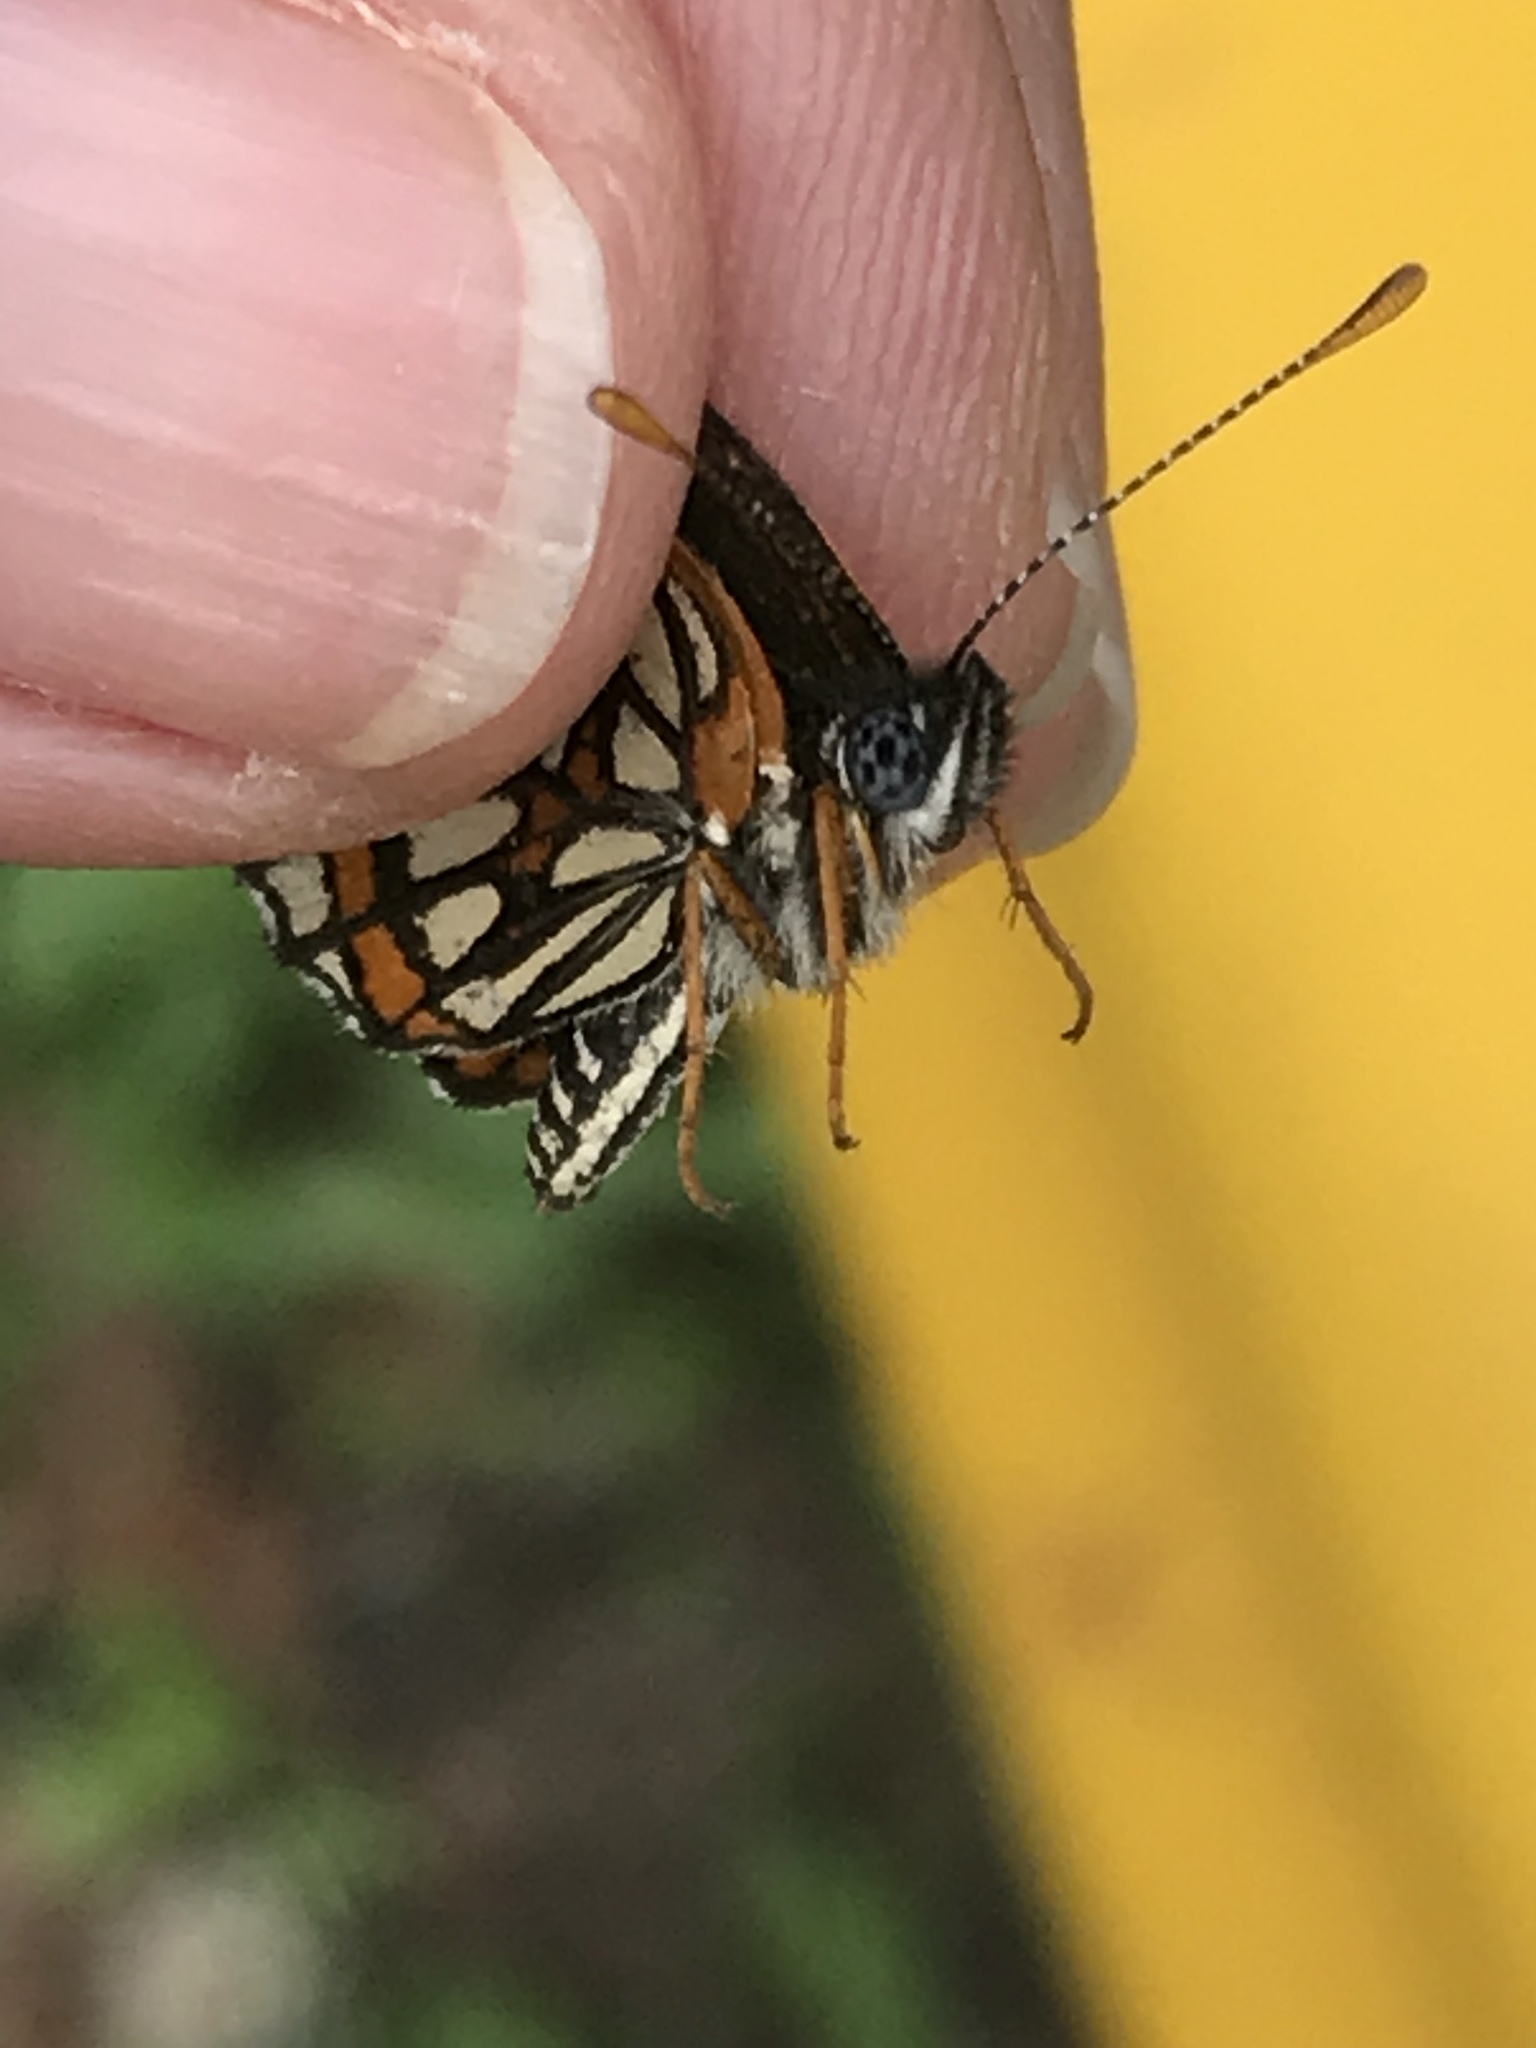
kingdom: Animalia
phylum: Arthropoda
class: Insecta
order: Lepidoptera
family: Nymphalidae
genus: Thessalia
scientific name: Thessalia theona
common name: Nymphalid moth
